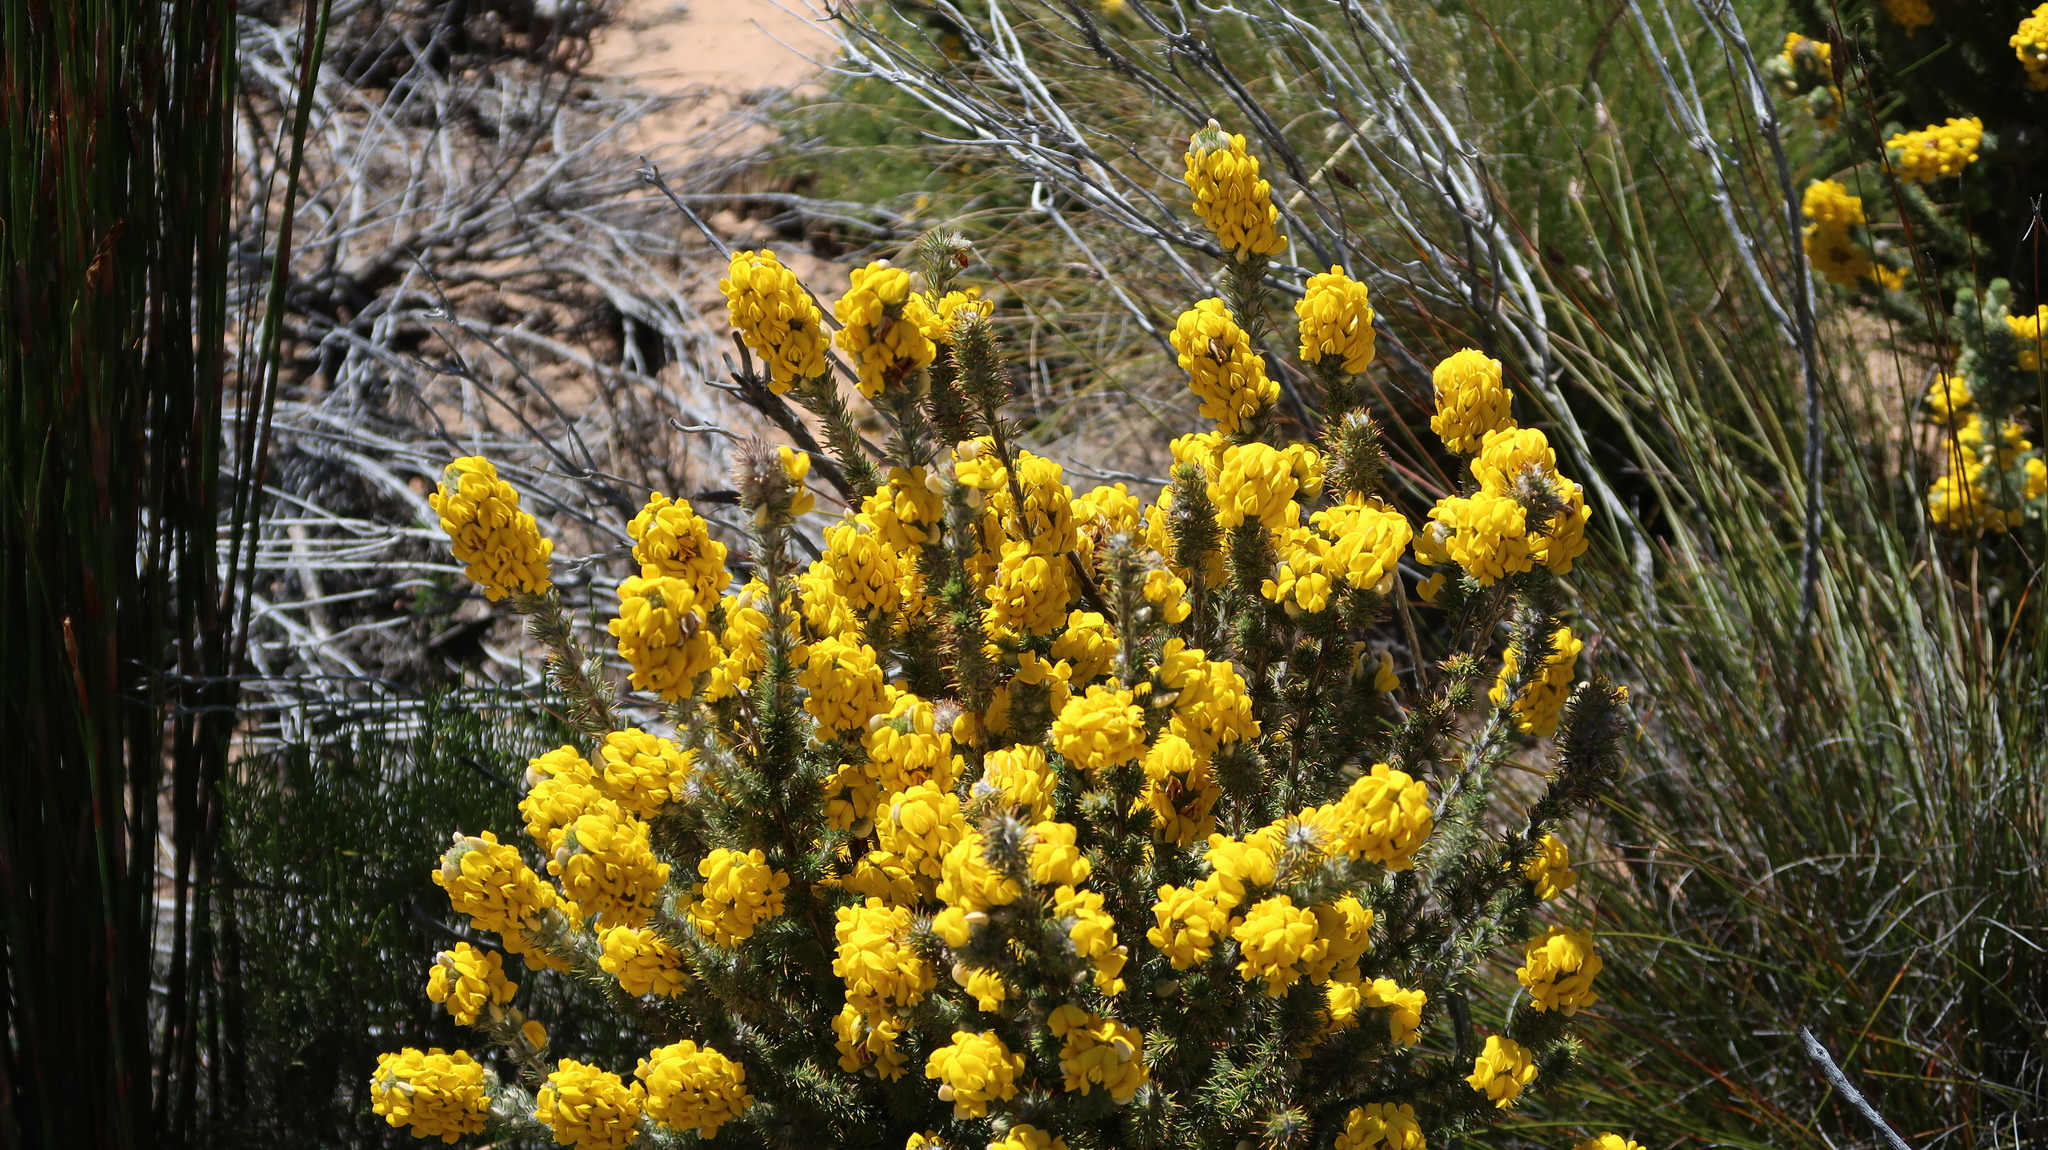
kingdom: Plantae
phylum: Tracheophyta
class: Magnoliopsida
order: Fabales
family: Fabaceae
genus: Aspalathus
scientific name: Aspalathus shawii
